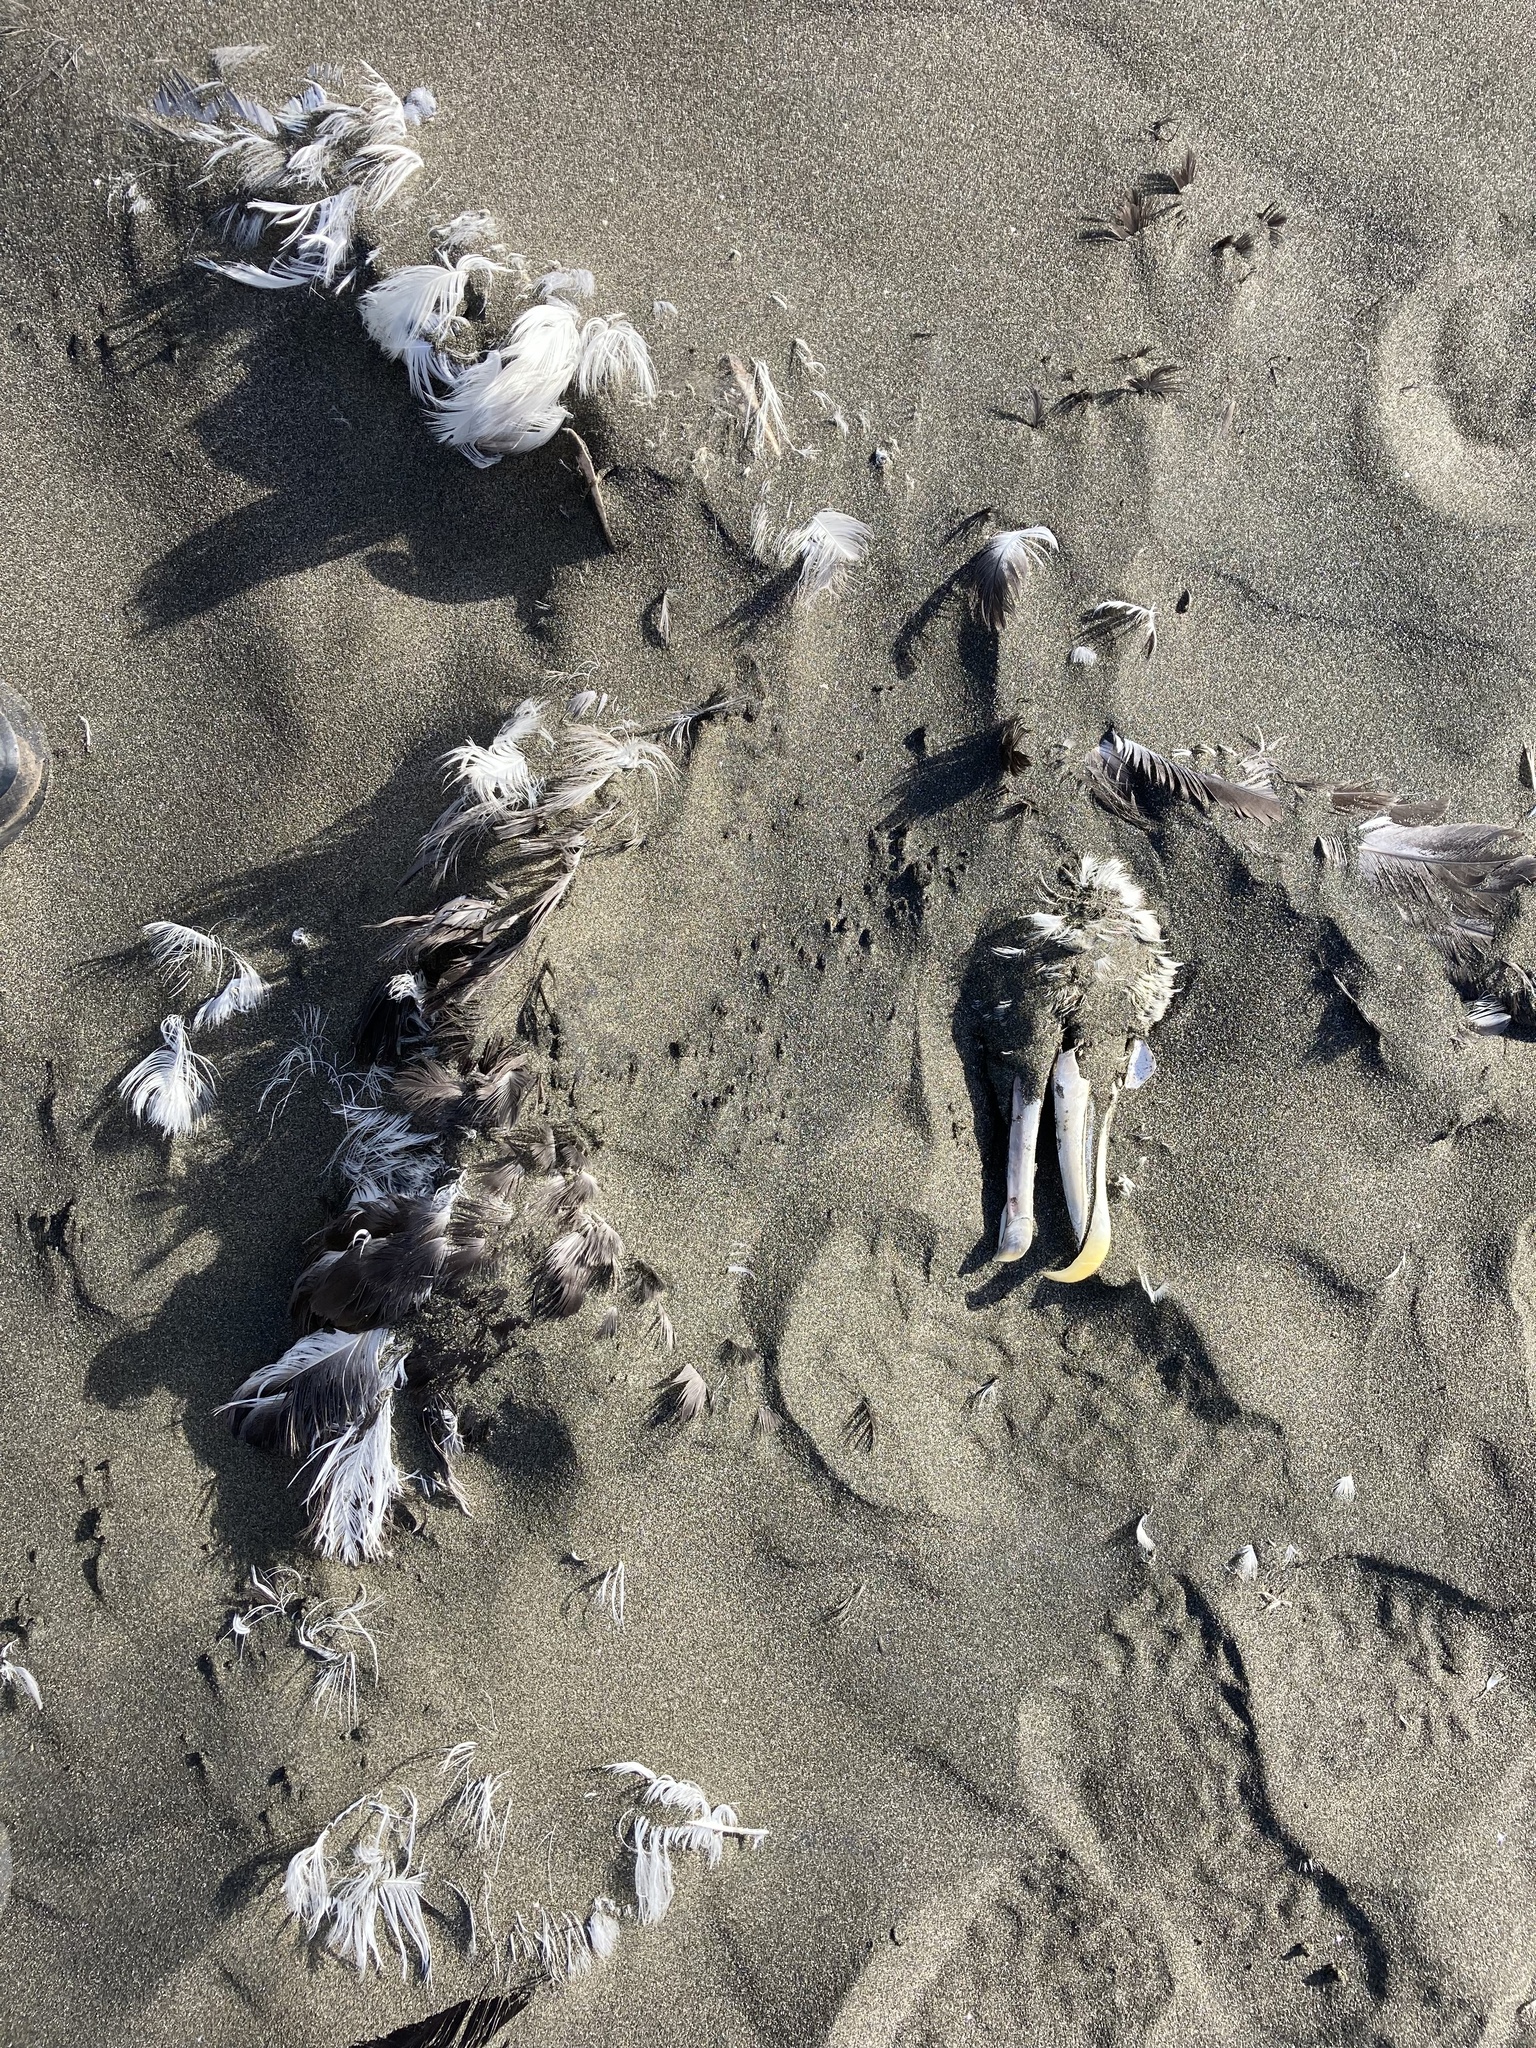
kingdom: Animalia
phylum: Chordata
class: Aves
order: Procellariiformes
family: Diomedeidae
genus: Thalassarche
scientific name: Thalassarche cauta
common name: Shy albatross
